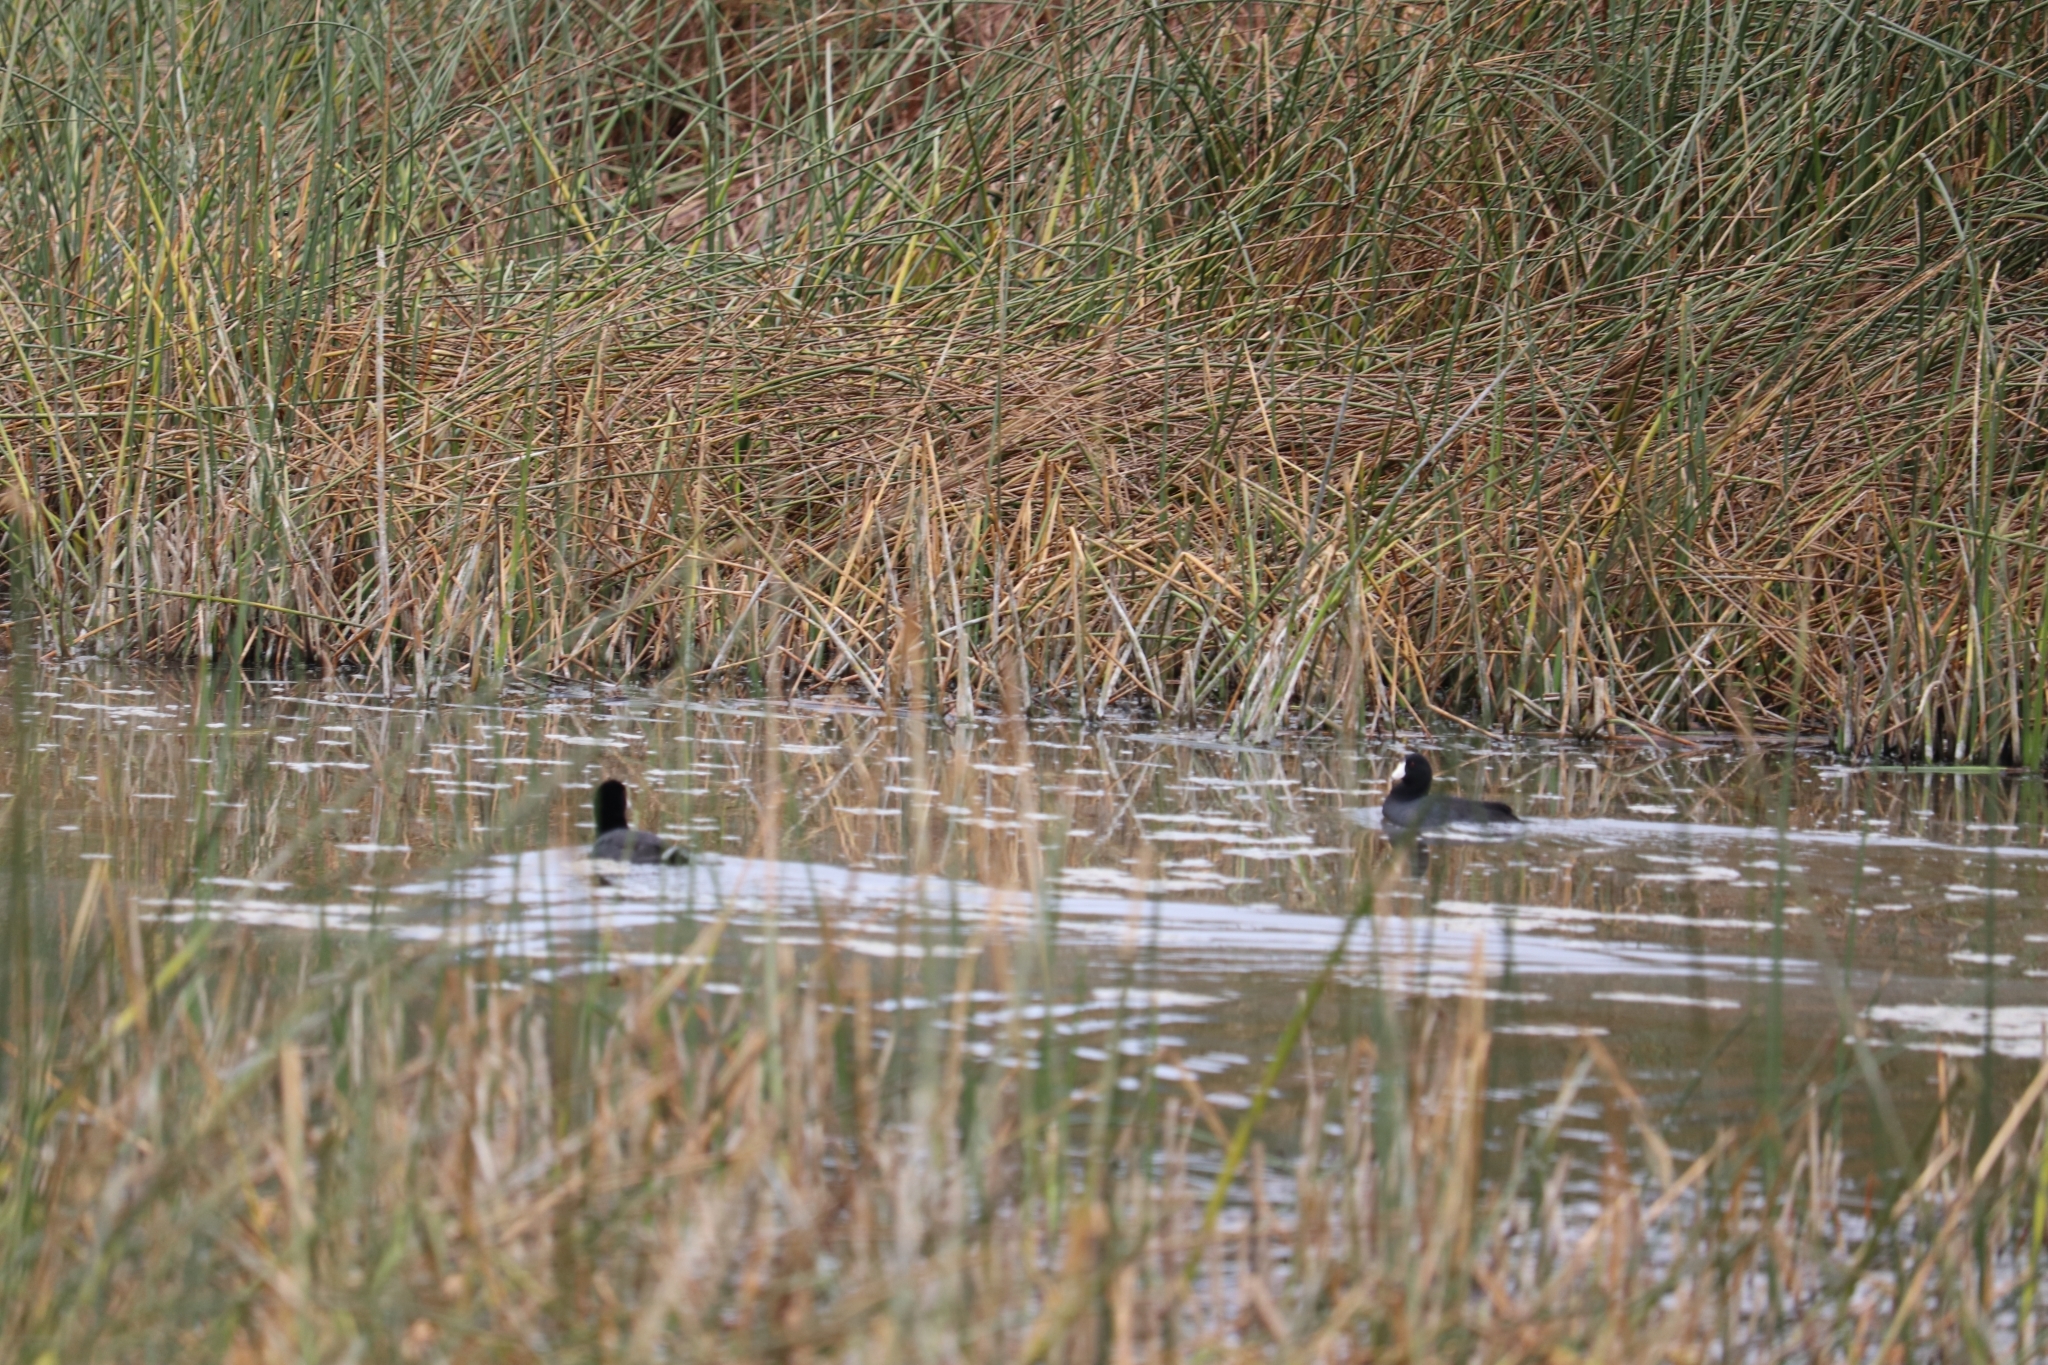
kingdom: Animalia
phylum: Chordata
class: Aves
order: Gruiformes
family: Rallidae
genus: Fulica
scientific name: Fulica americana
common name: American coot
